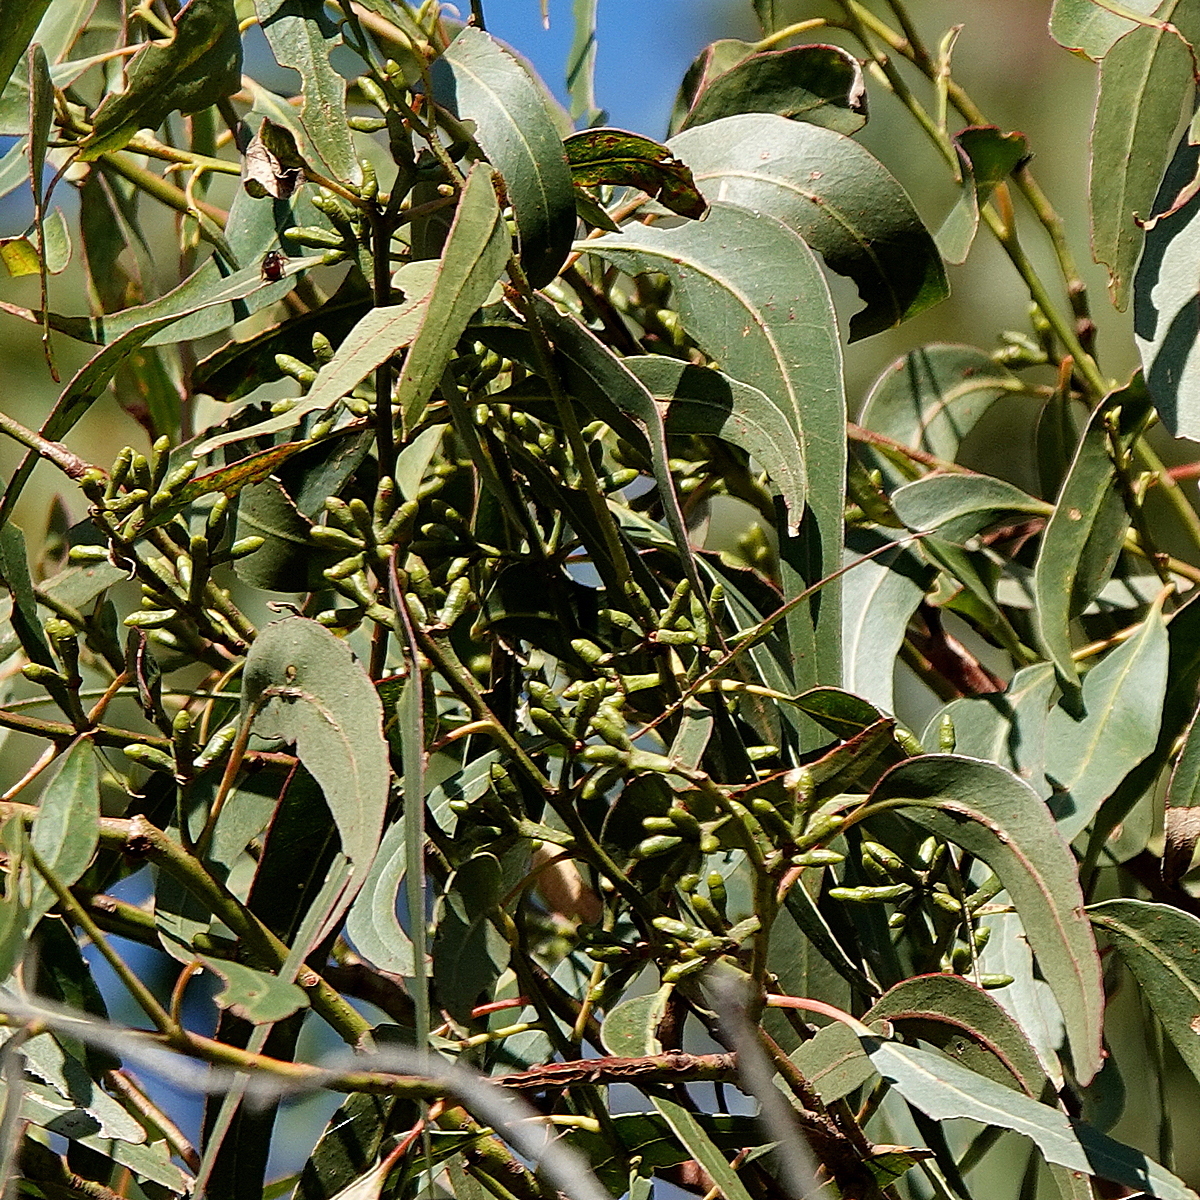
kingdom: Plantae
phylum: Tracheophyta
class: Magnoliopsida
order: Myrtales
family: Myrtaceae
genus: Eucalyptus
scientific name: Eucalyptus cypellocarpa
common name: Mountain grey gum
